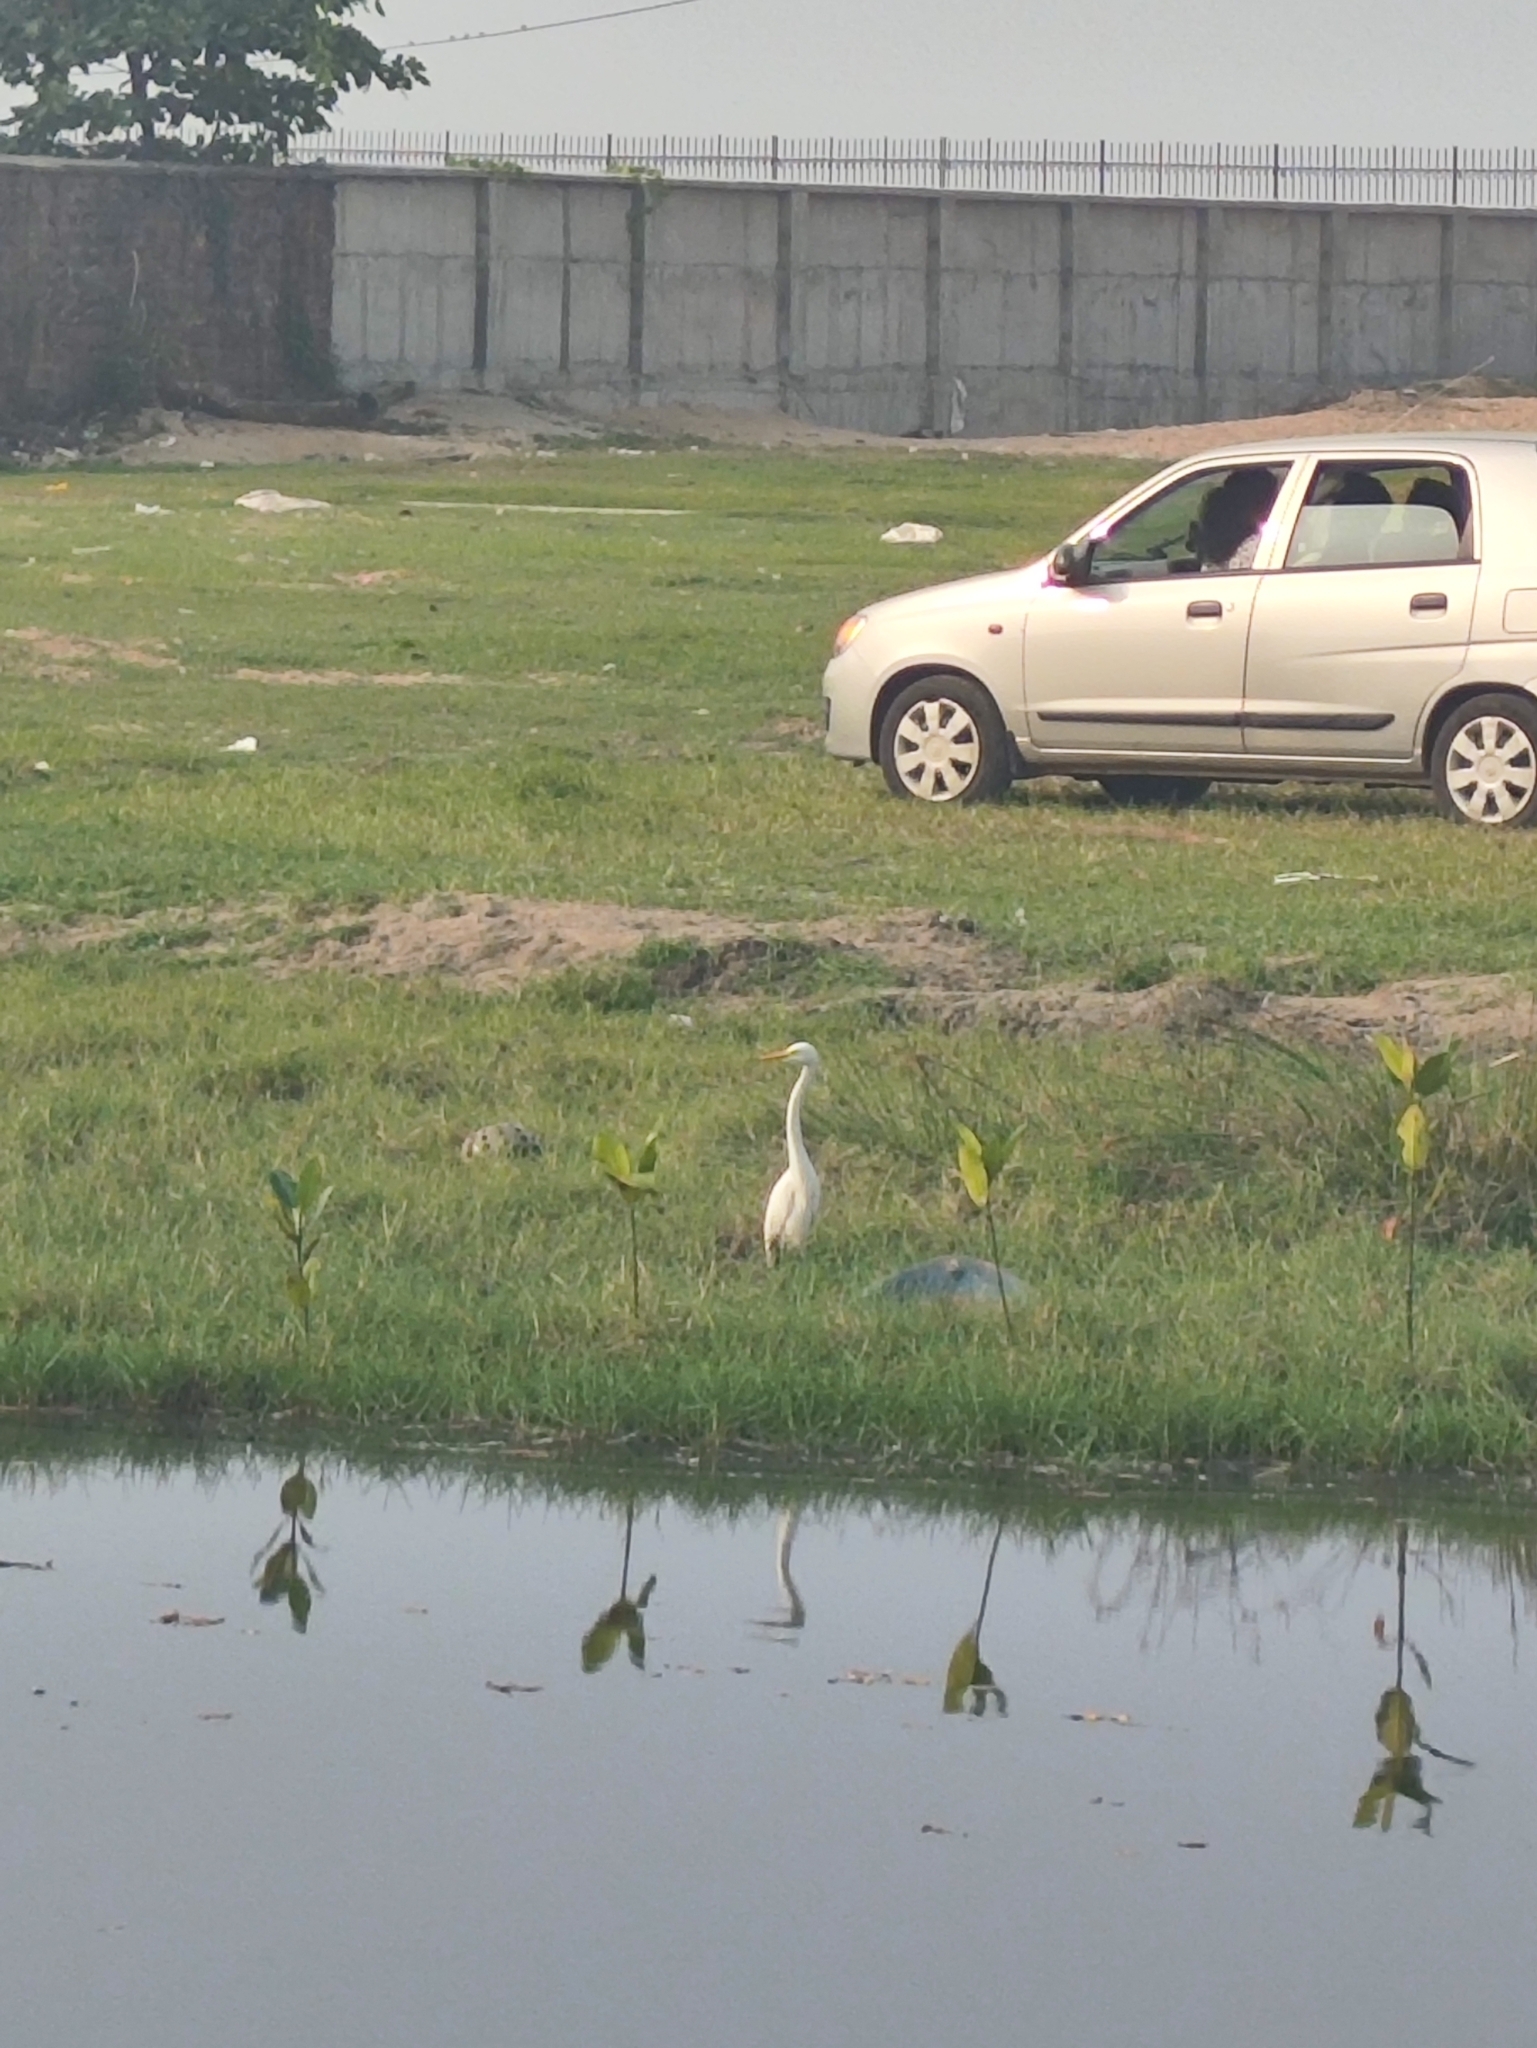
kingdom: Animalia
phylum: Chordata
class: Aves
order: Pelecaniformes
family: Ardeidae
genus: Egretta
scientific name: Egretta intermedia
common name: Intermediate egret
